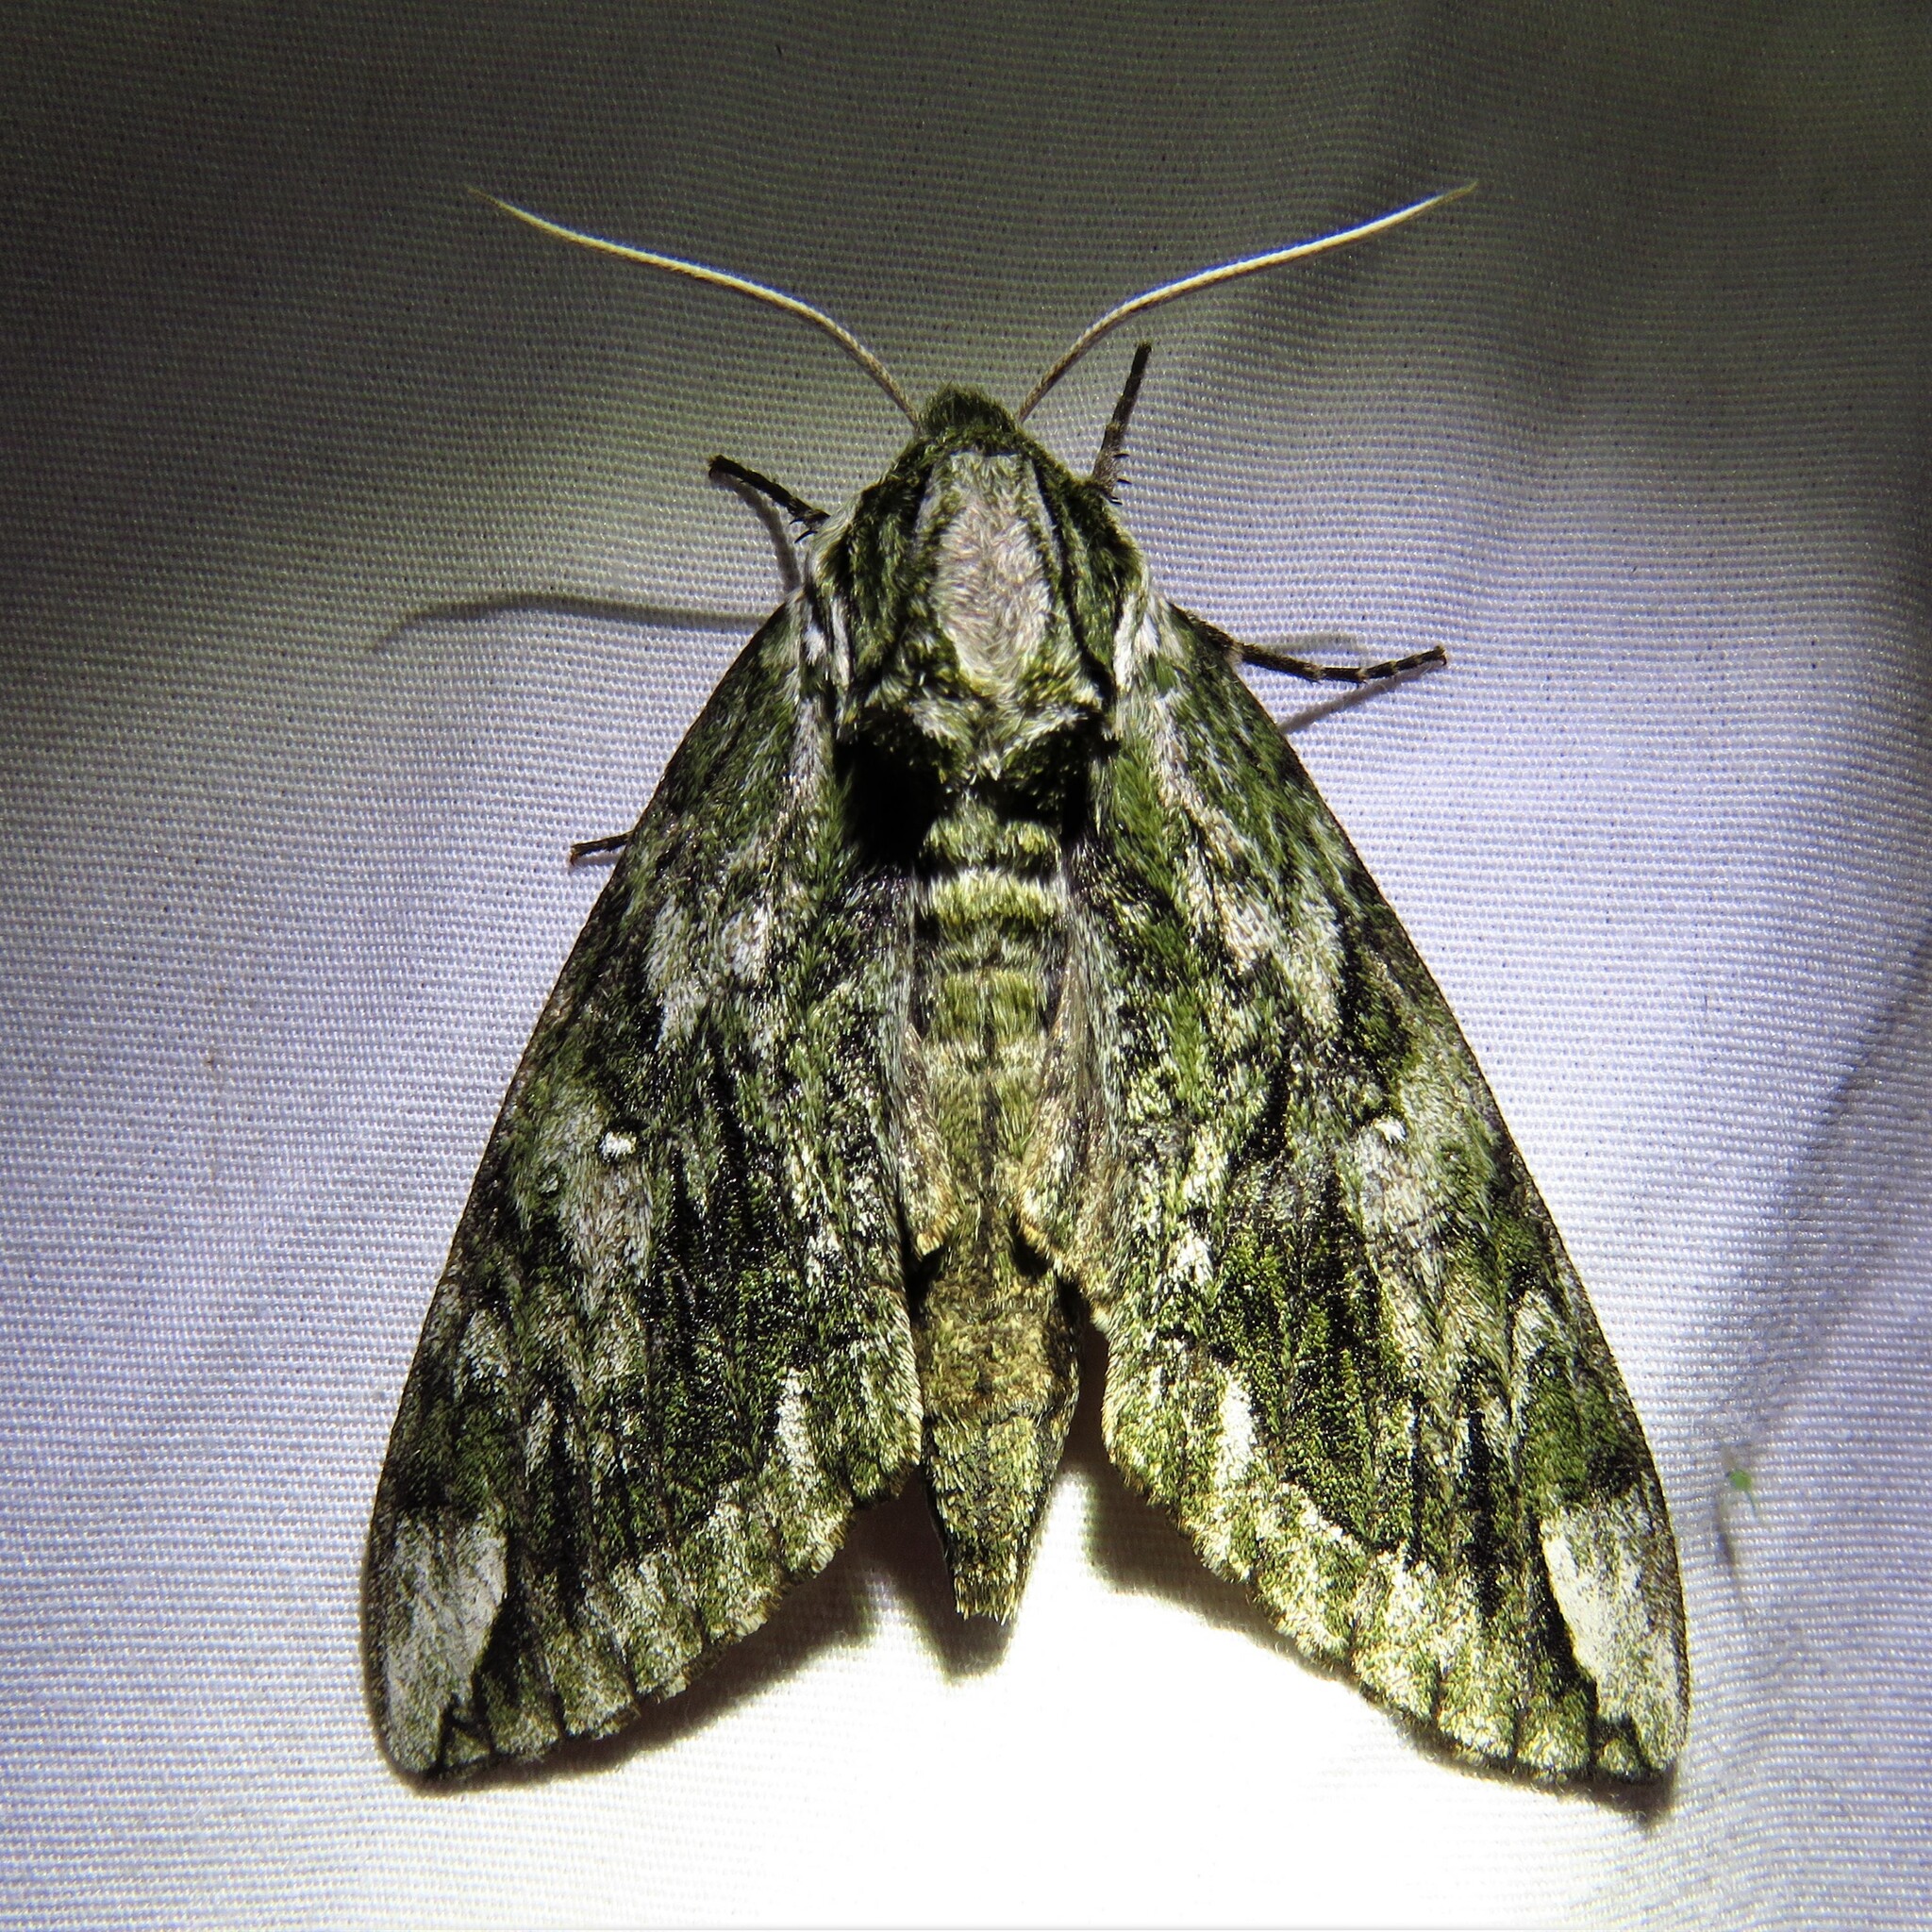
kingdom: Animalia
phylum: Arthropoda
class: Insecta
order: Lepidoptera
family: Sphingidae
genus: Ceratomia
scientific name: Ceratomia hageni
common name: Hagen's sphinx
